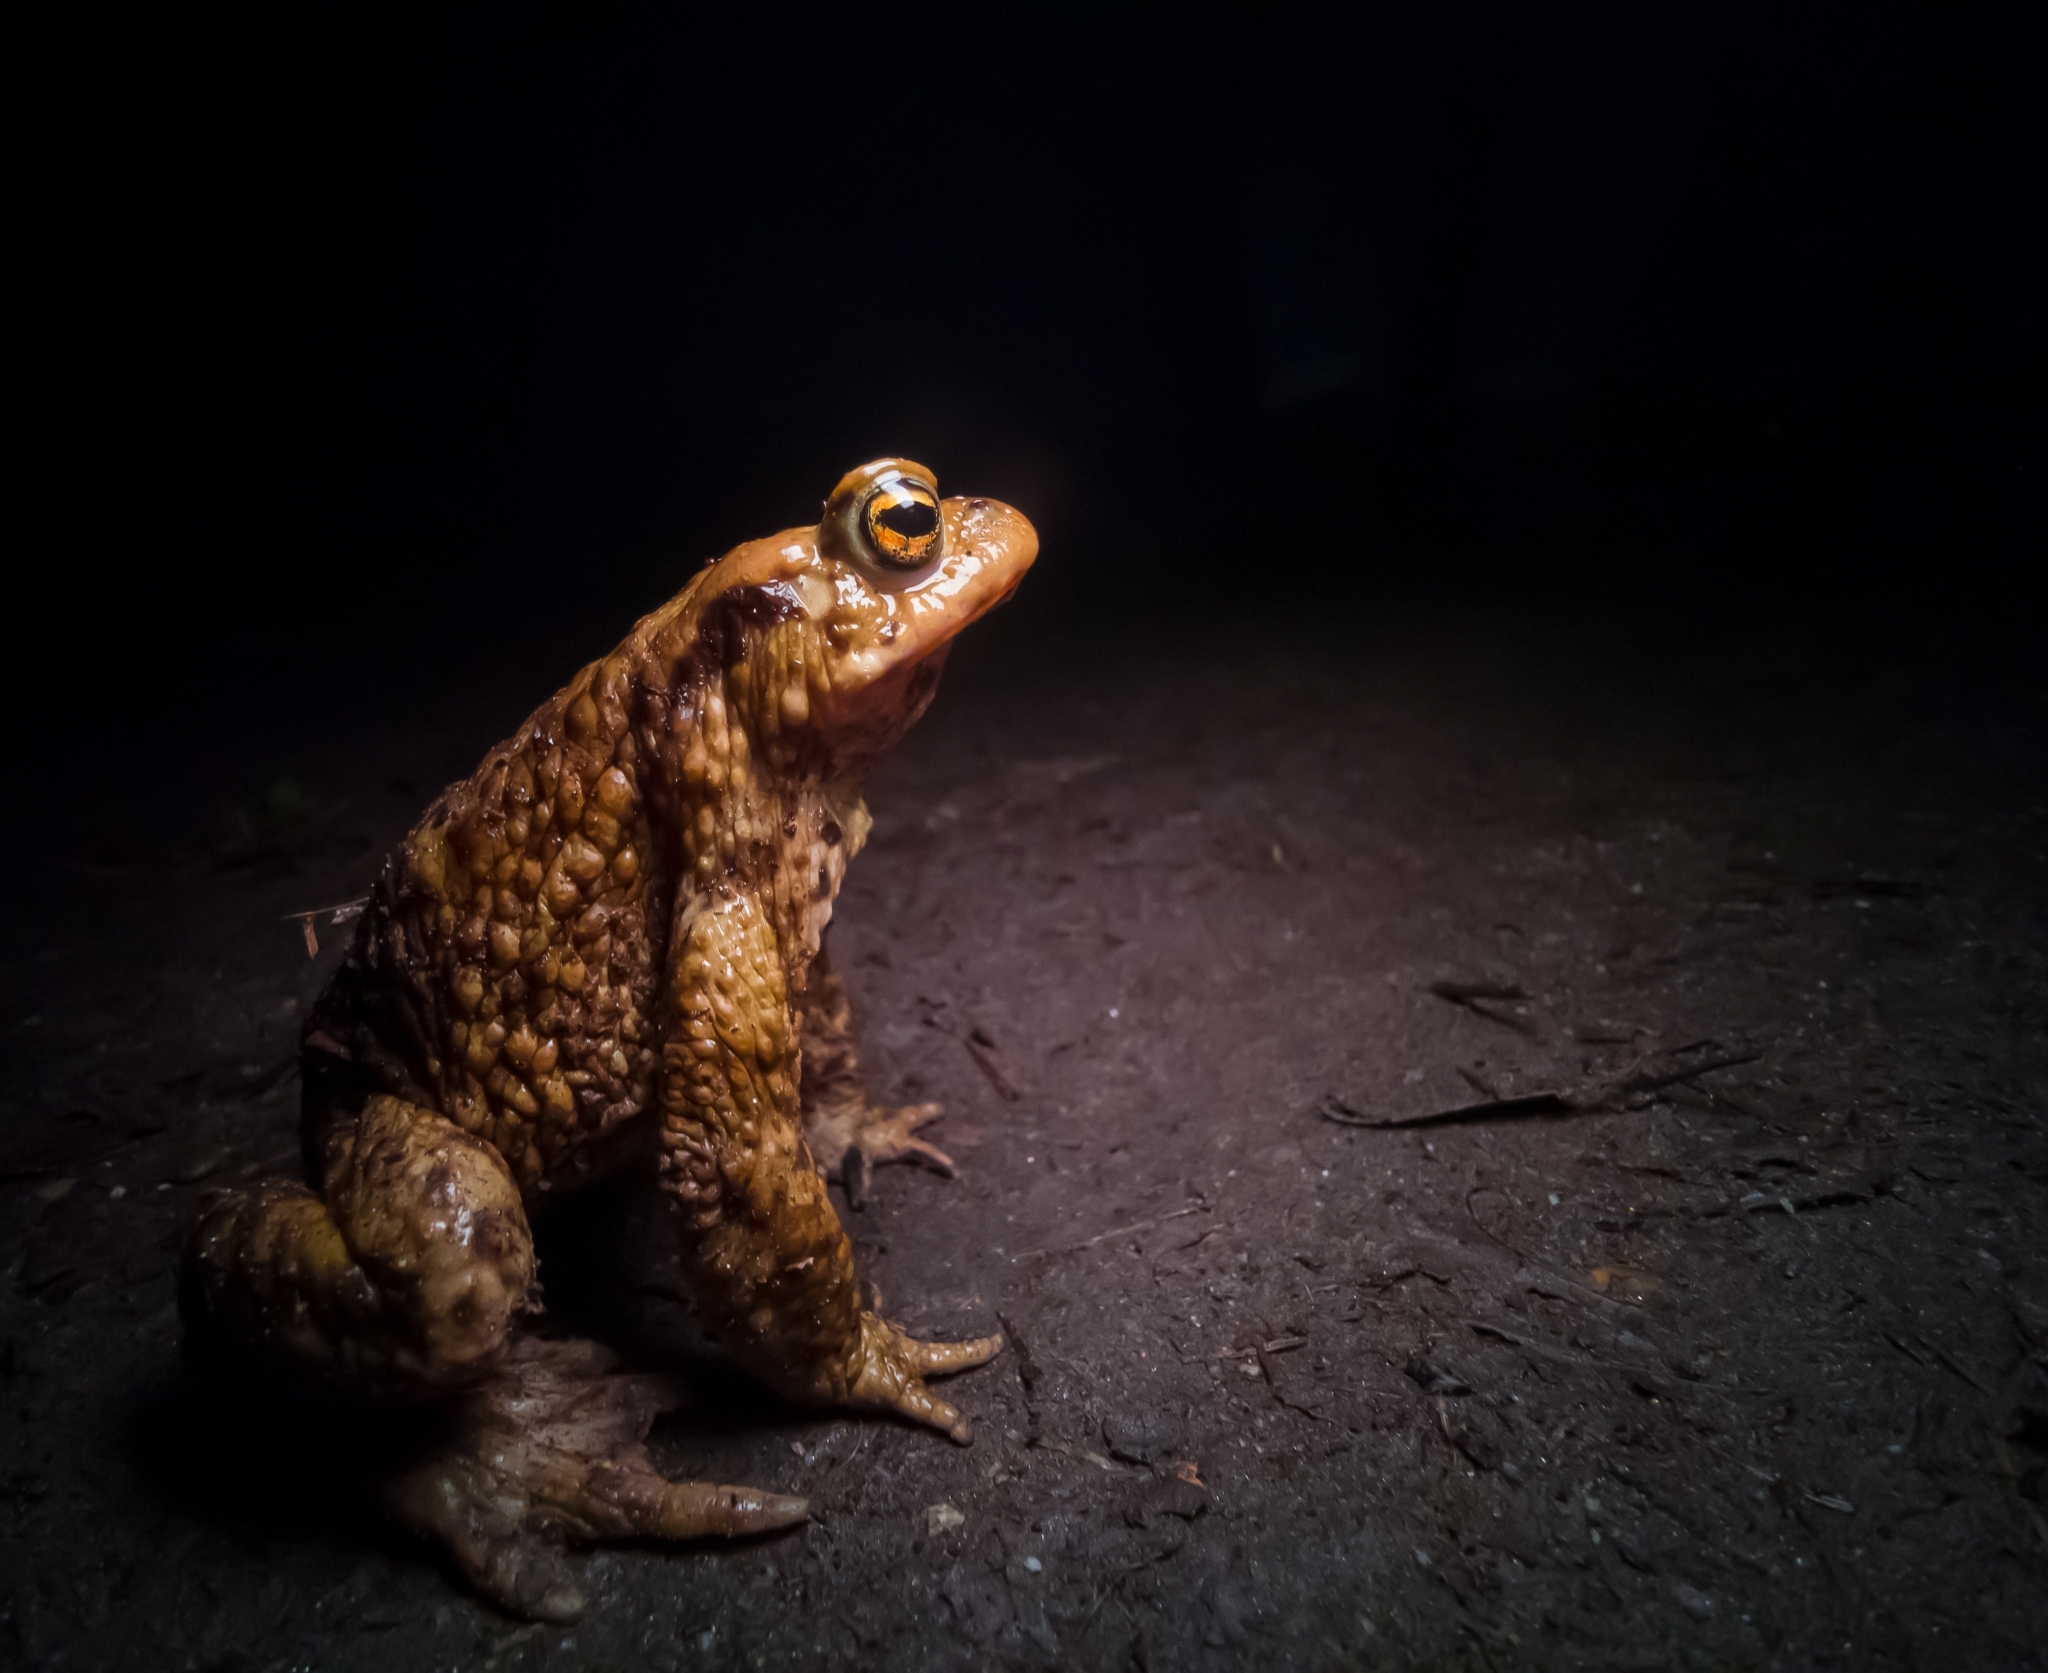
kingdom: Animalia
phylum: Chordata
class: Amphibia
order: Anura
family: Bufonidae
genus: Bufo
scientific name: Bufo bufo
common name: Common toad
